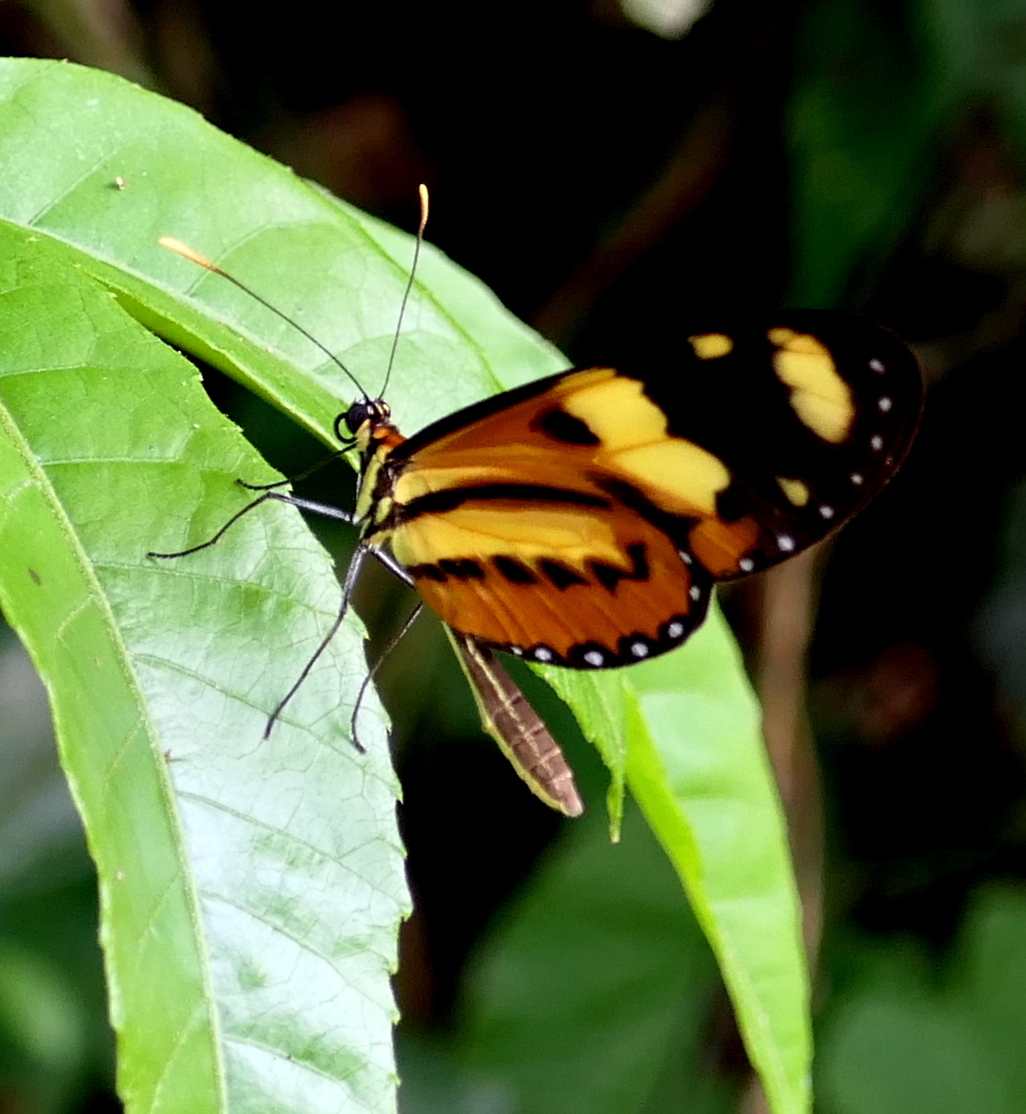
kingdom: Animalia
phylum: Arthropoda
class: Insecta
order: Lepidoptera
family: Nymphalidae
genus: Mechanitis
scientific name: Mechanitis lysimnia
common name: Lysimnia tigerwing
